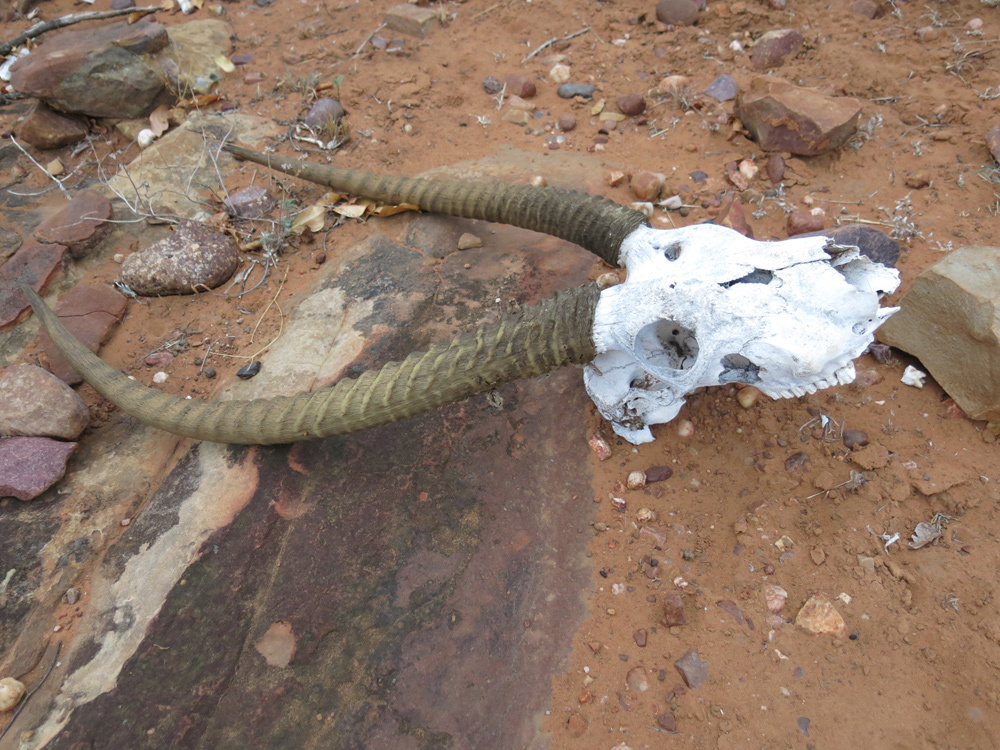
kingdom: Animalia
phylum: Chordata
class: Mammalia
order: Artiodactyla
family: Bovidae
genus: Kobus
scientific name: Kobus ellipsiprymnus
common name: Waterbuck
